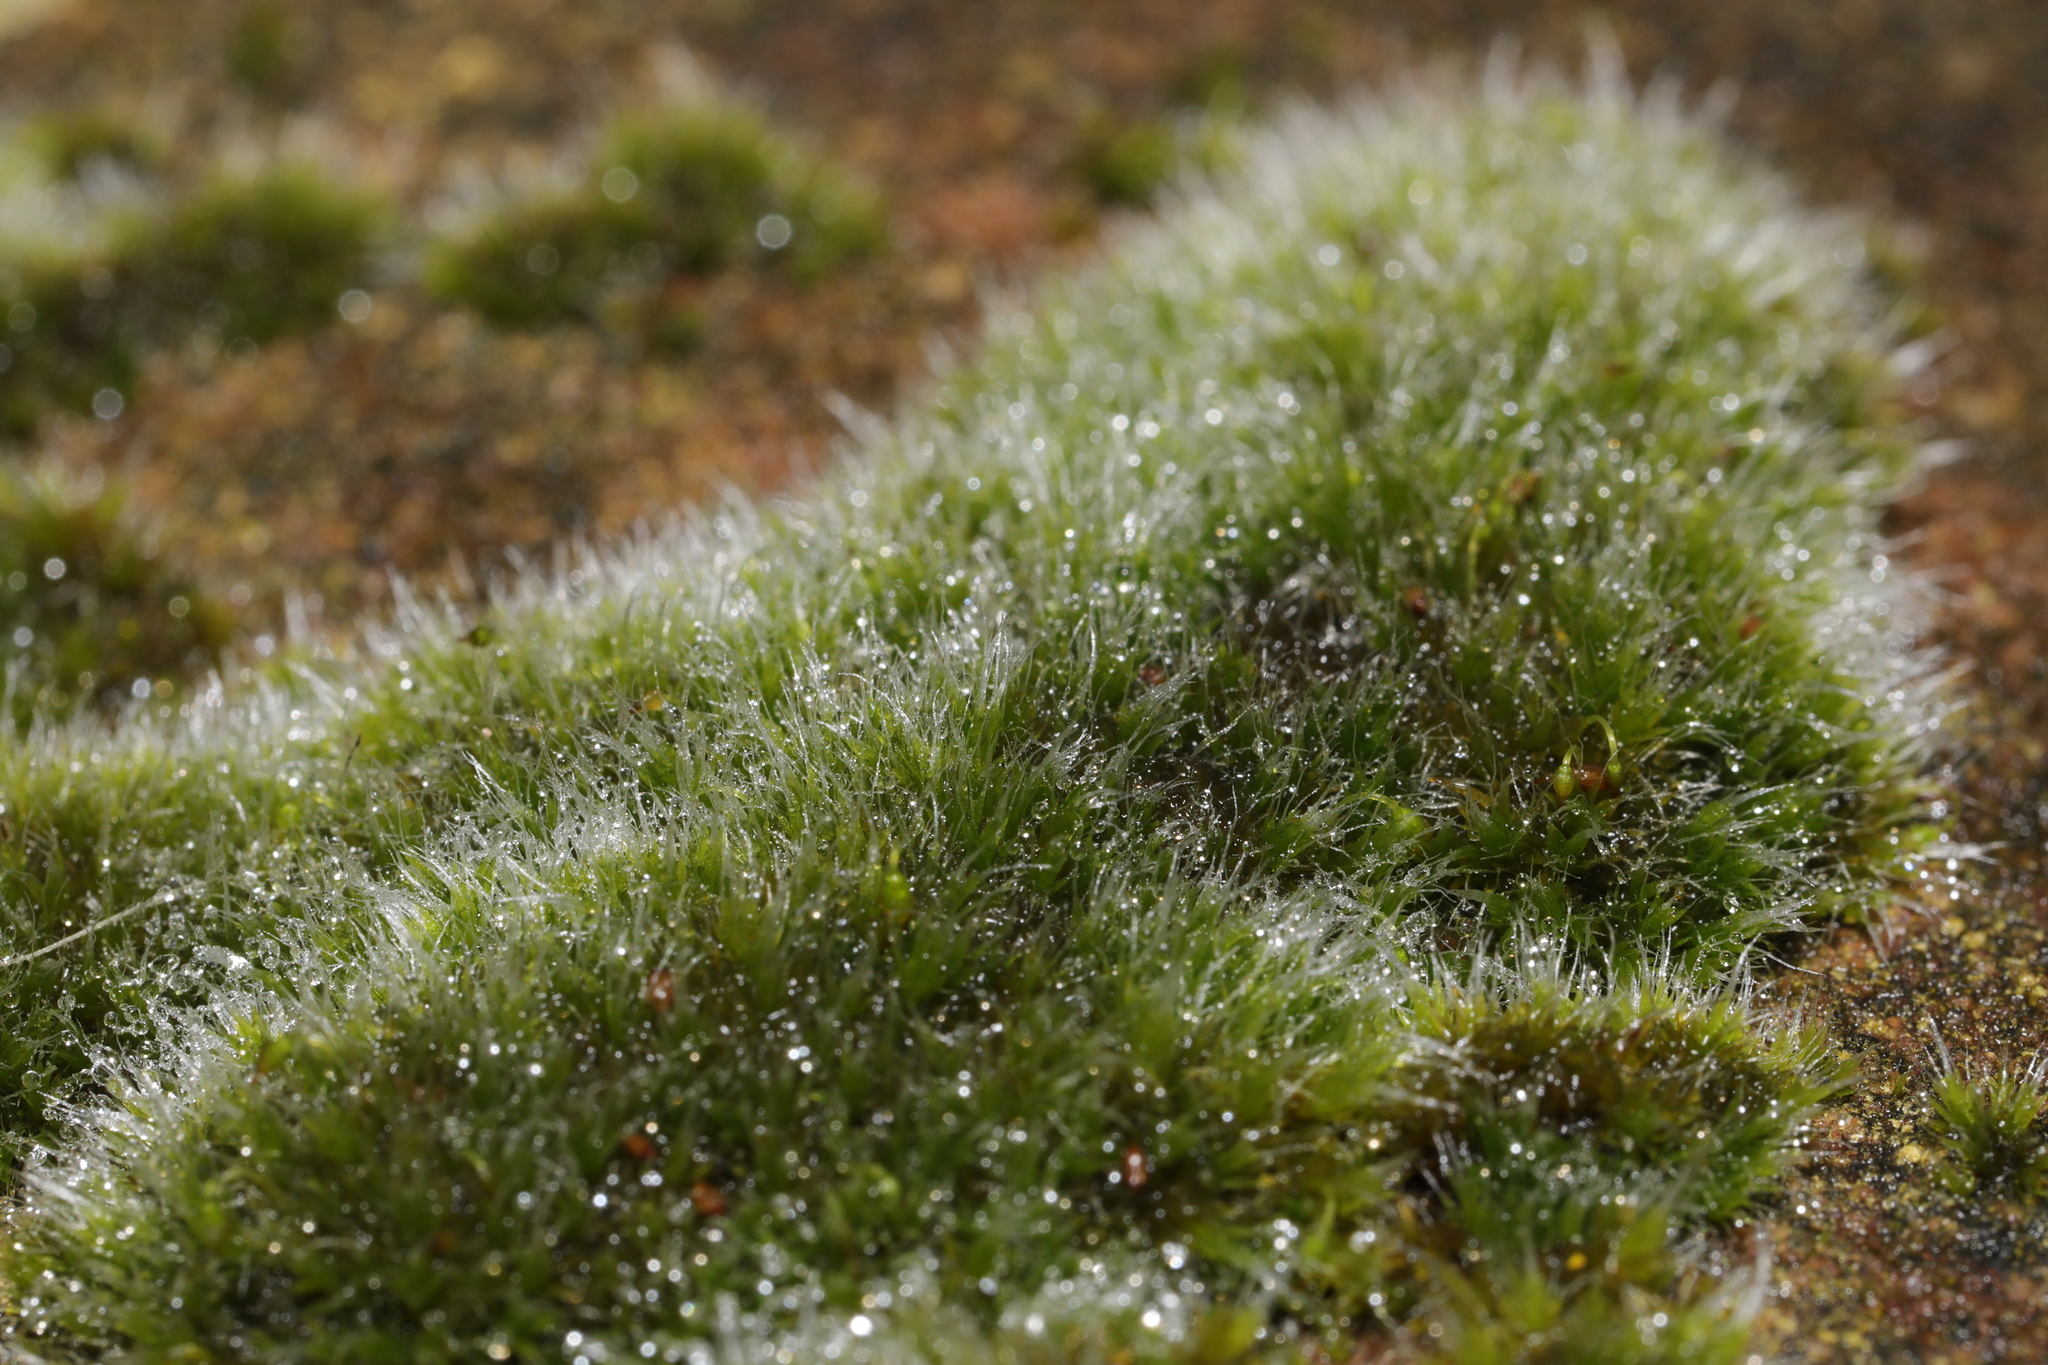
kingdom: Plantae
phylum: Bryophyta
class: Bryopsida
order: Grimmiales
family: Grimmiaceae
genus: Grimmia
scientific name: Grimmia pulvinata
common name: Grey-cushioned grimmia
